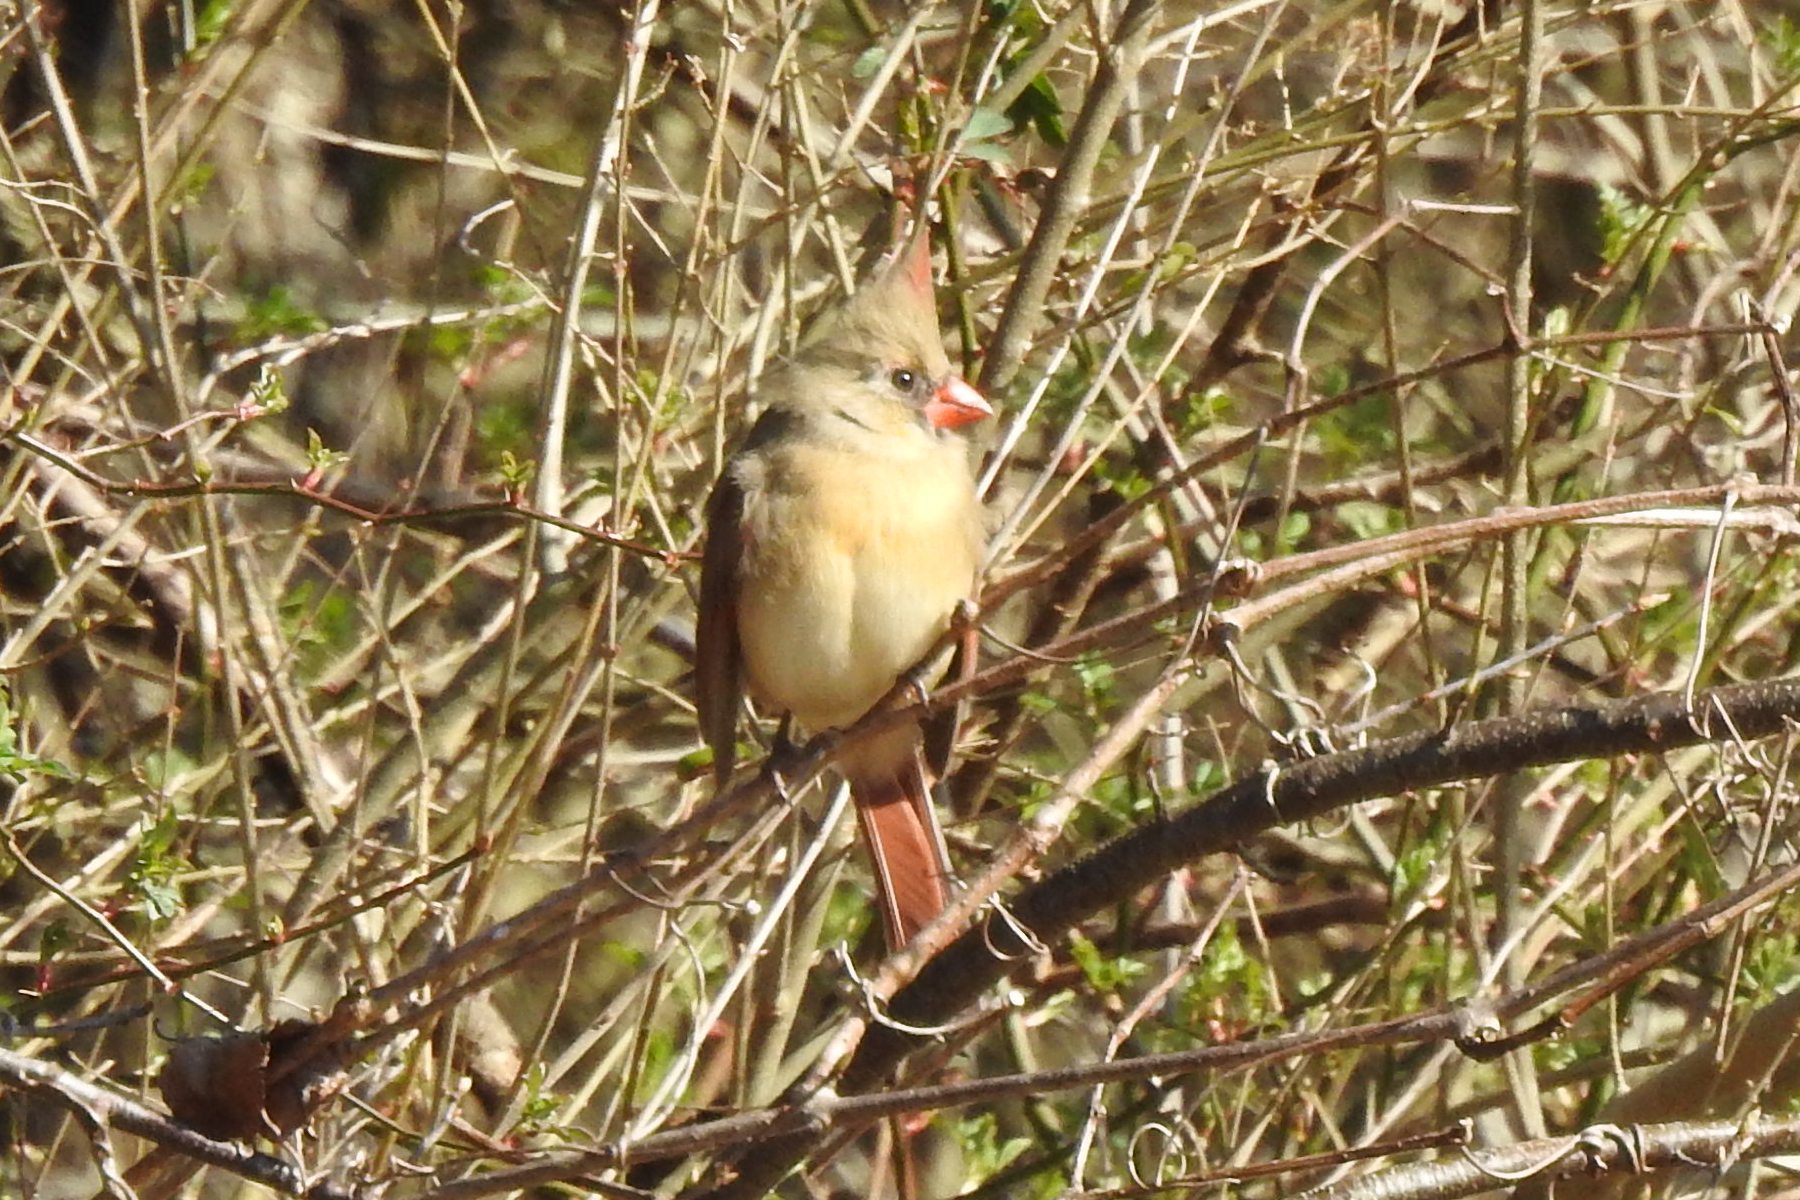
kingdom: Animalia
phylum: Chordata
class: Aves
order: Passeriformes
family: Cardinalidae
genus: Cardinalis
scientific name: Cardinalis cardinalis
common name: Northern cardinal
